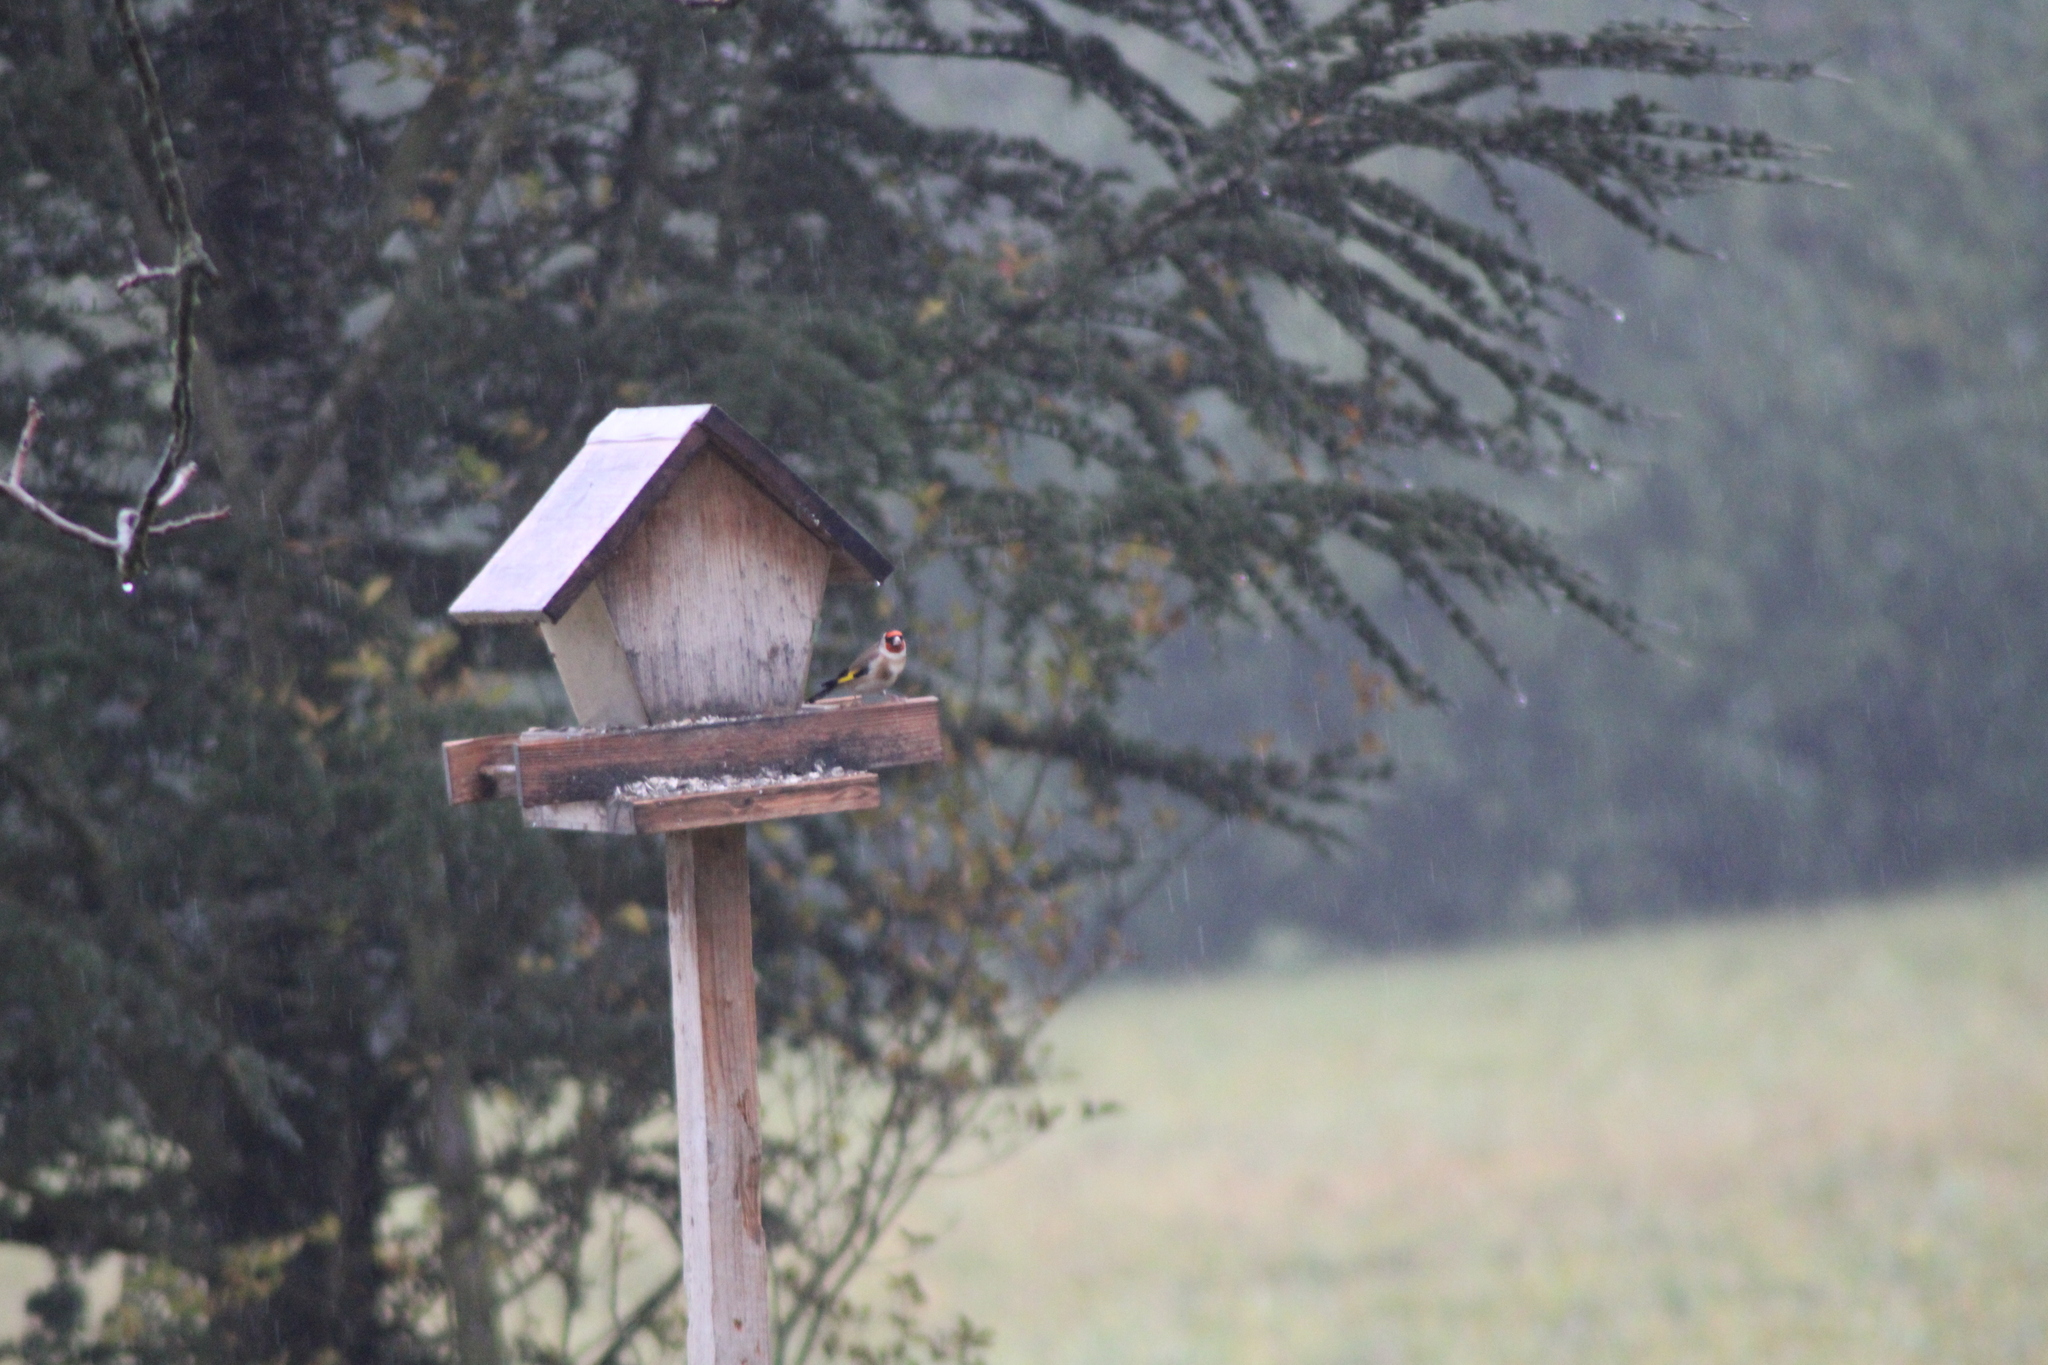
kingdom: Animalia
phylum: Chordata
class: Aves
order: Passeriformes
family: Fringillidae
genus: Carduelis
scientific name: Carduelis carduelis
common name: European goldfinch
